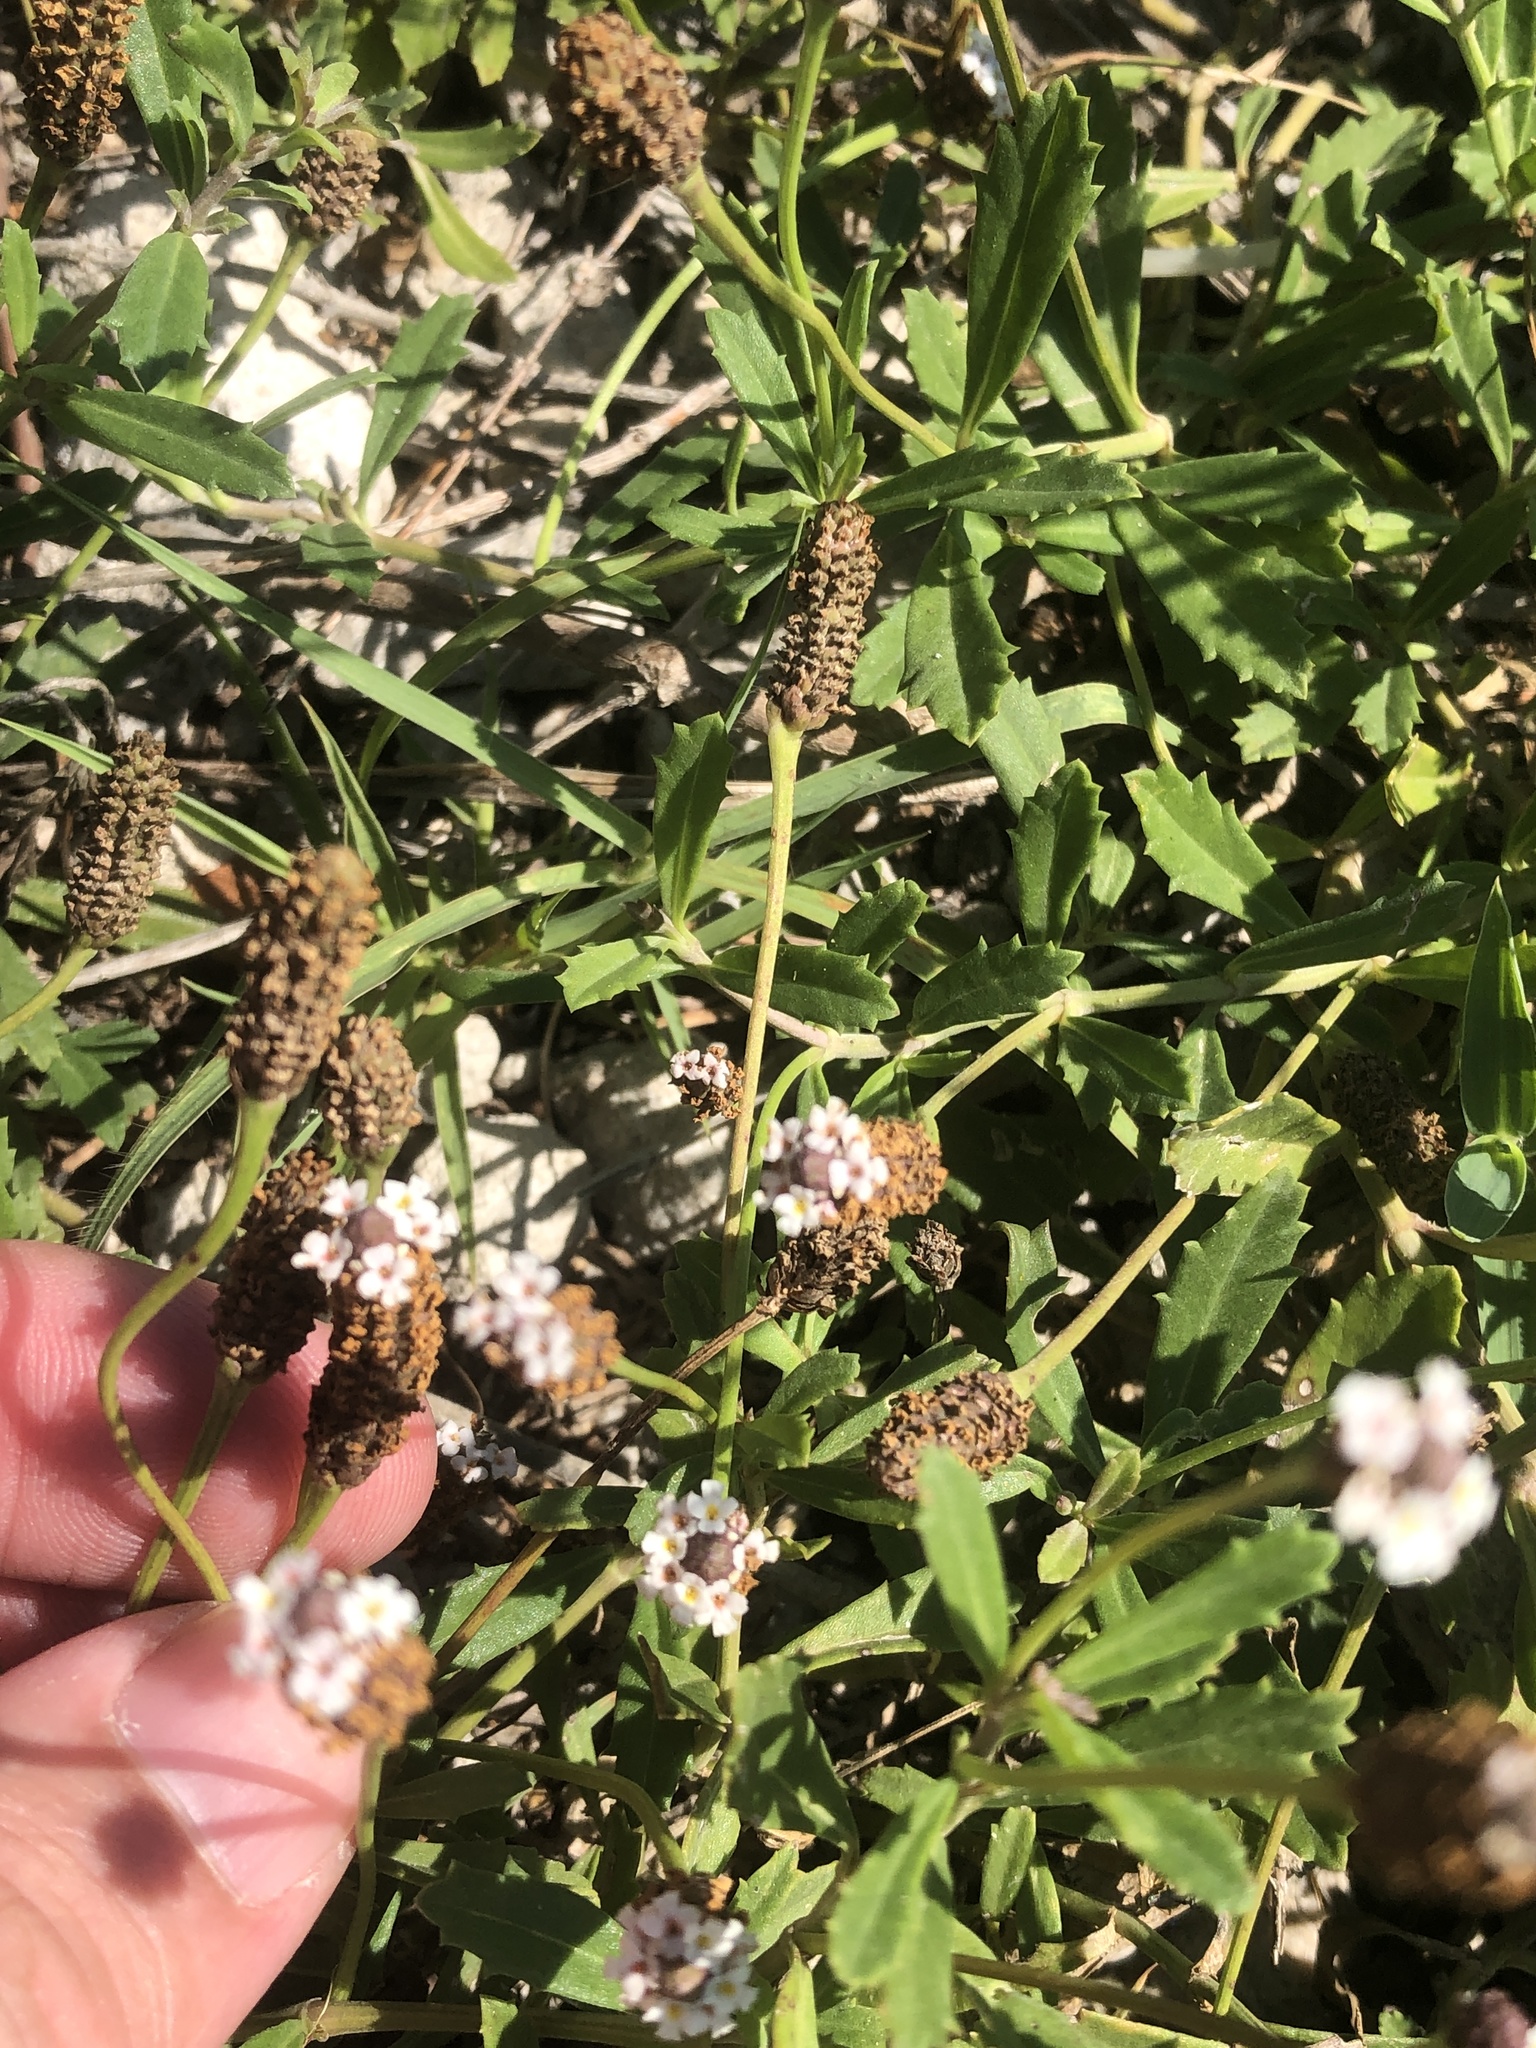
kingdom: Plantae
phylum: Tracheophyta
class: Magnoliopsida
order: Lamiales
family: Verbenaceae
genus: Phyla
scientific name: Phyla nodiflora
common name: Frogfruit
